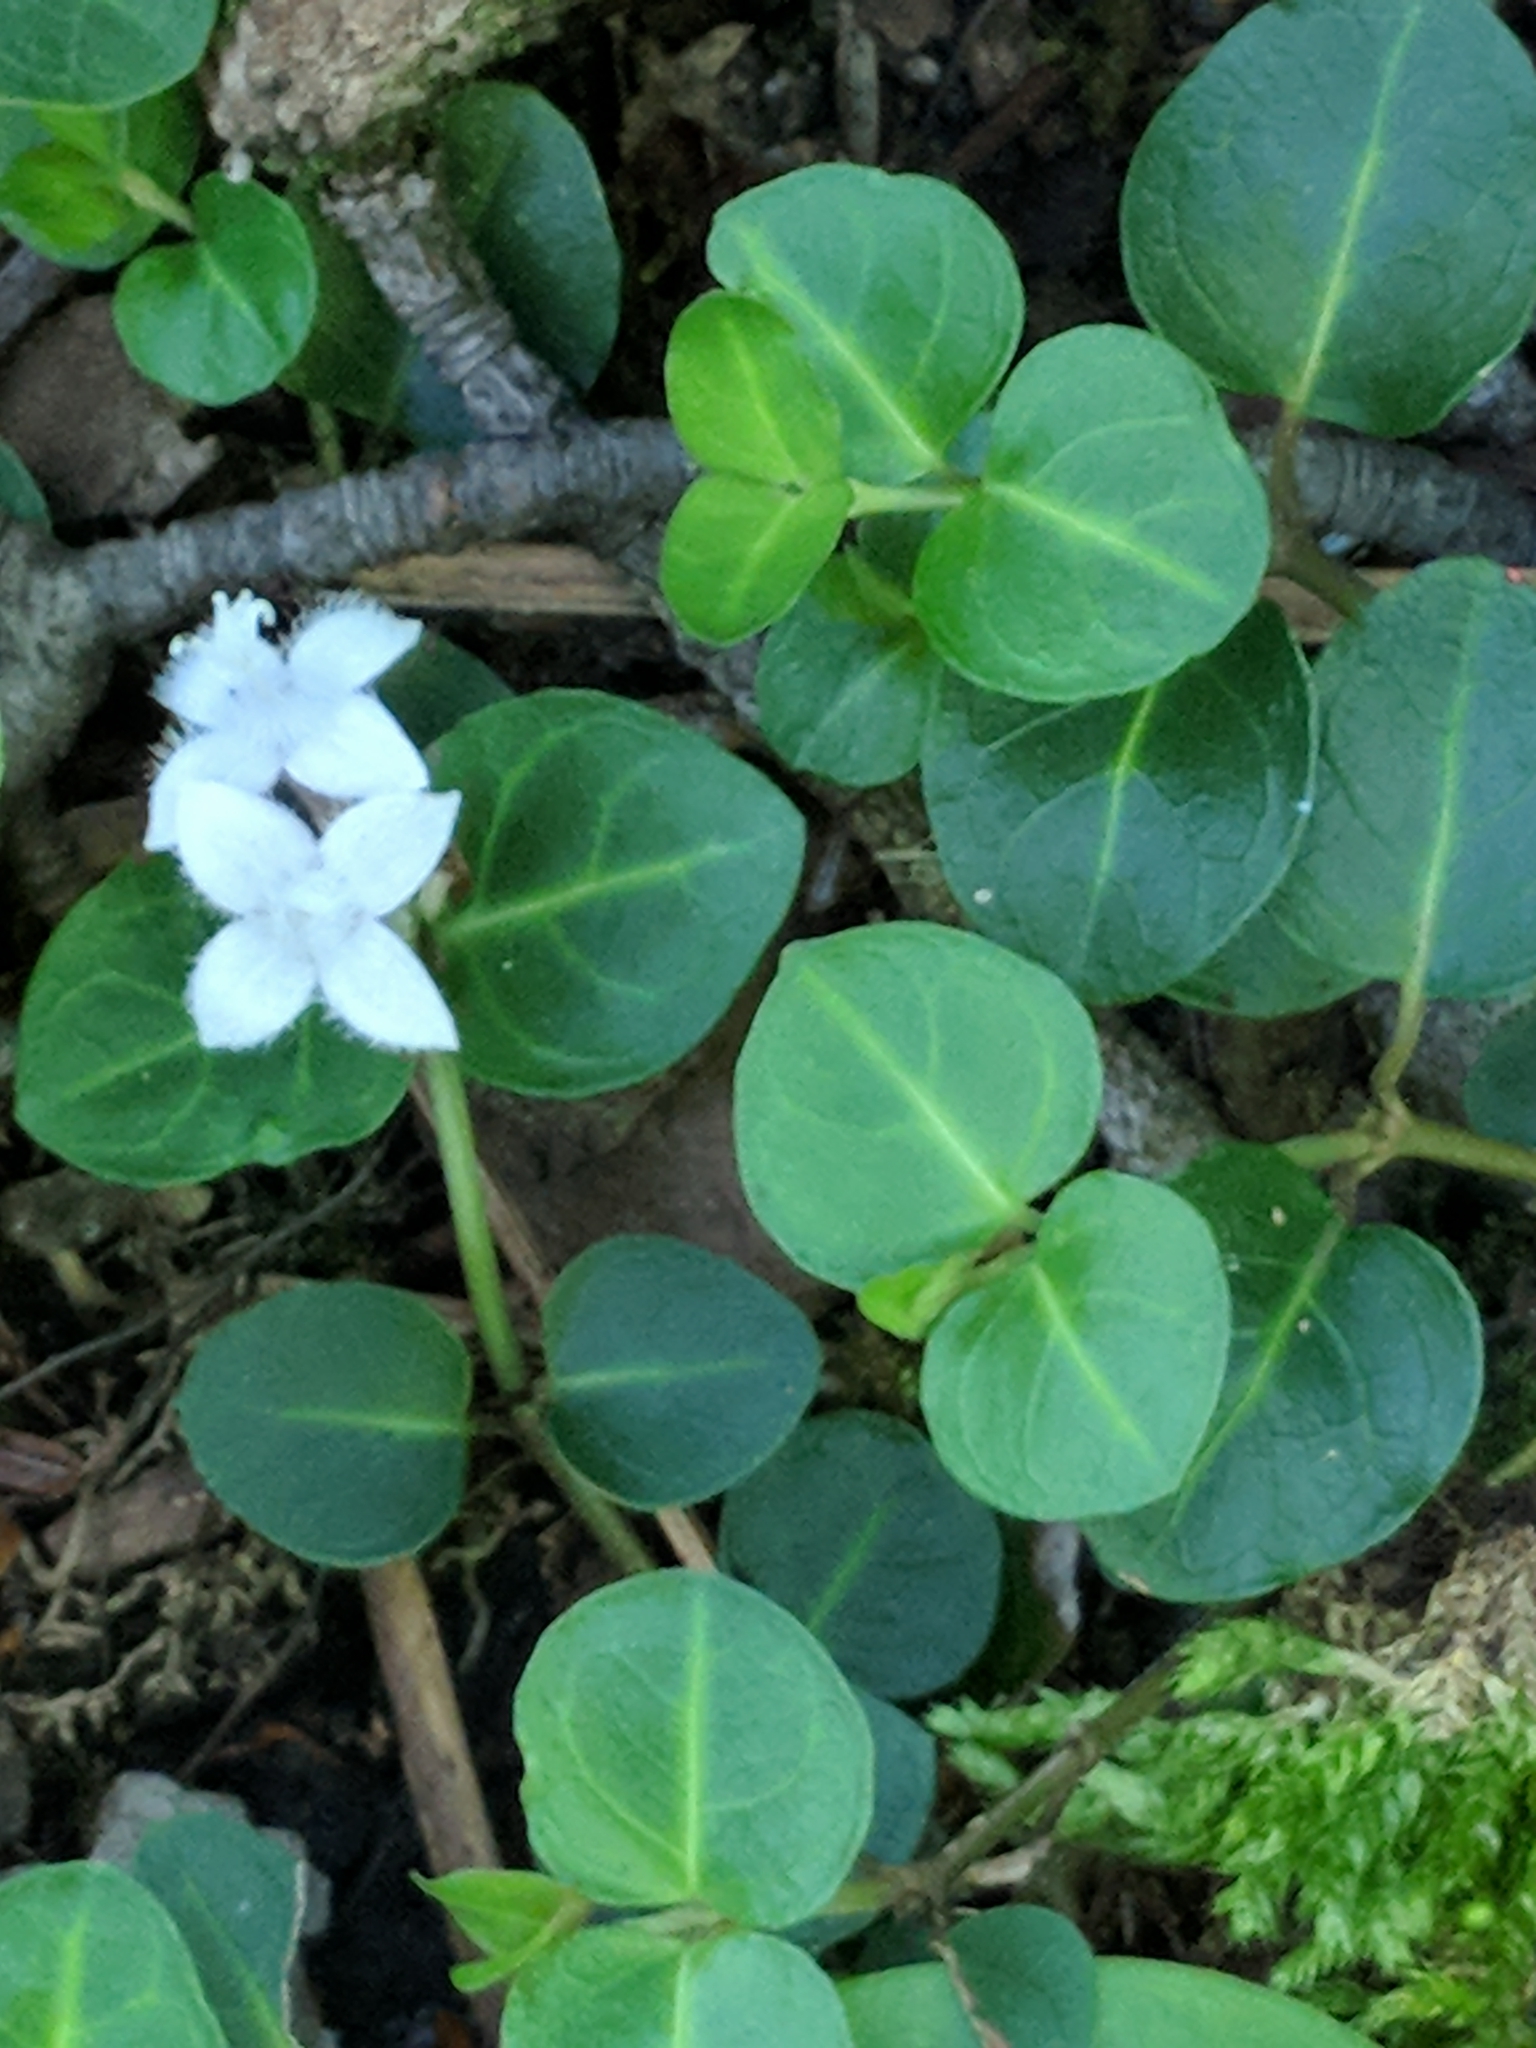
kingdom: Plantae
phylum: Tracheophyta
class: Magnoliopsida
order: Gentianales
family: Rubiaceae
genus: Mitchella
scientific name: Mitchella repens
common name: Partridge-berry
